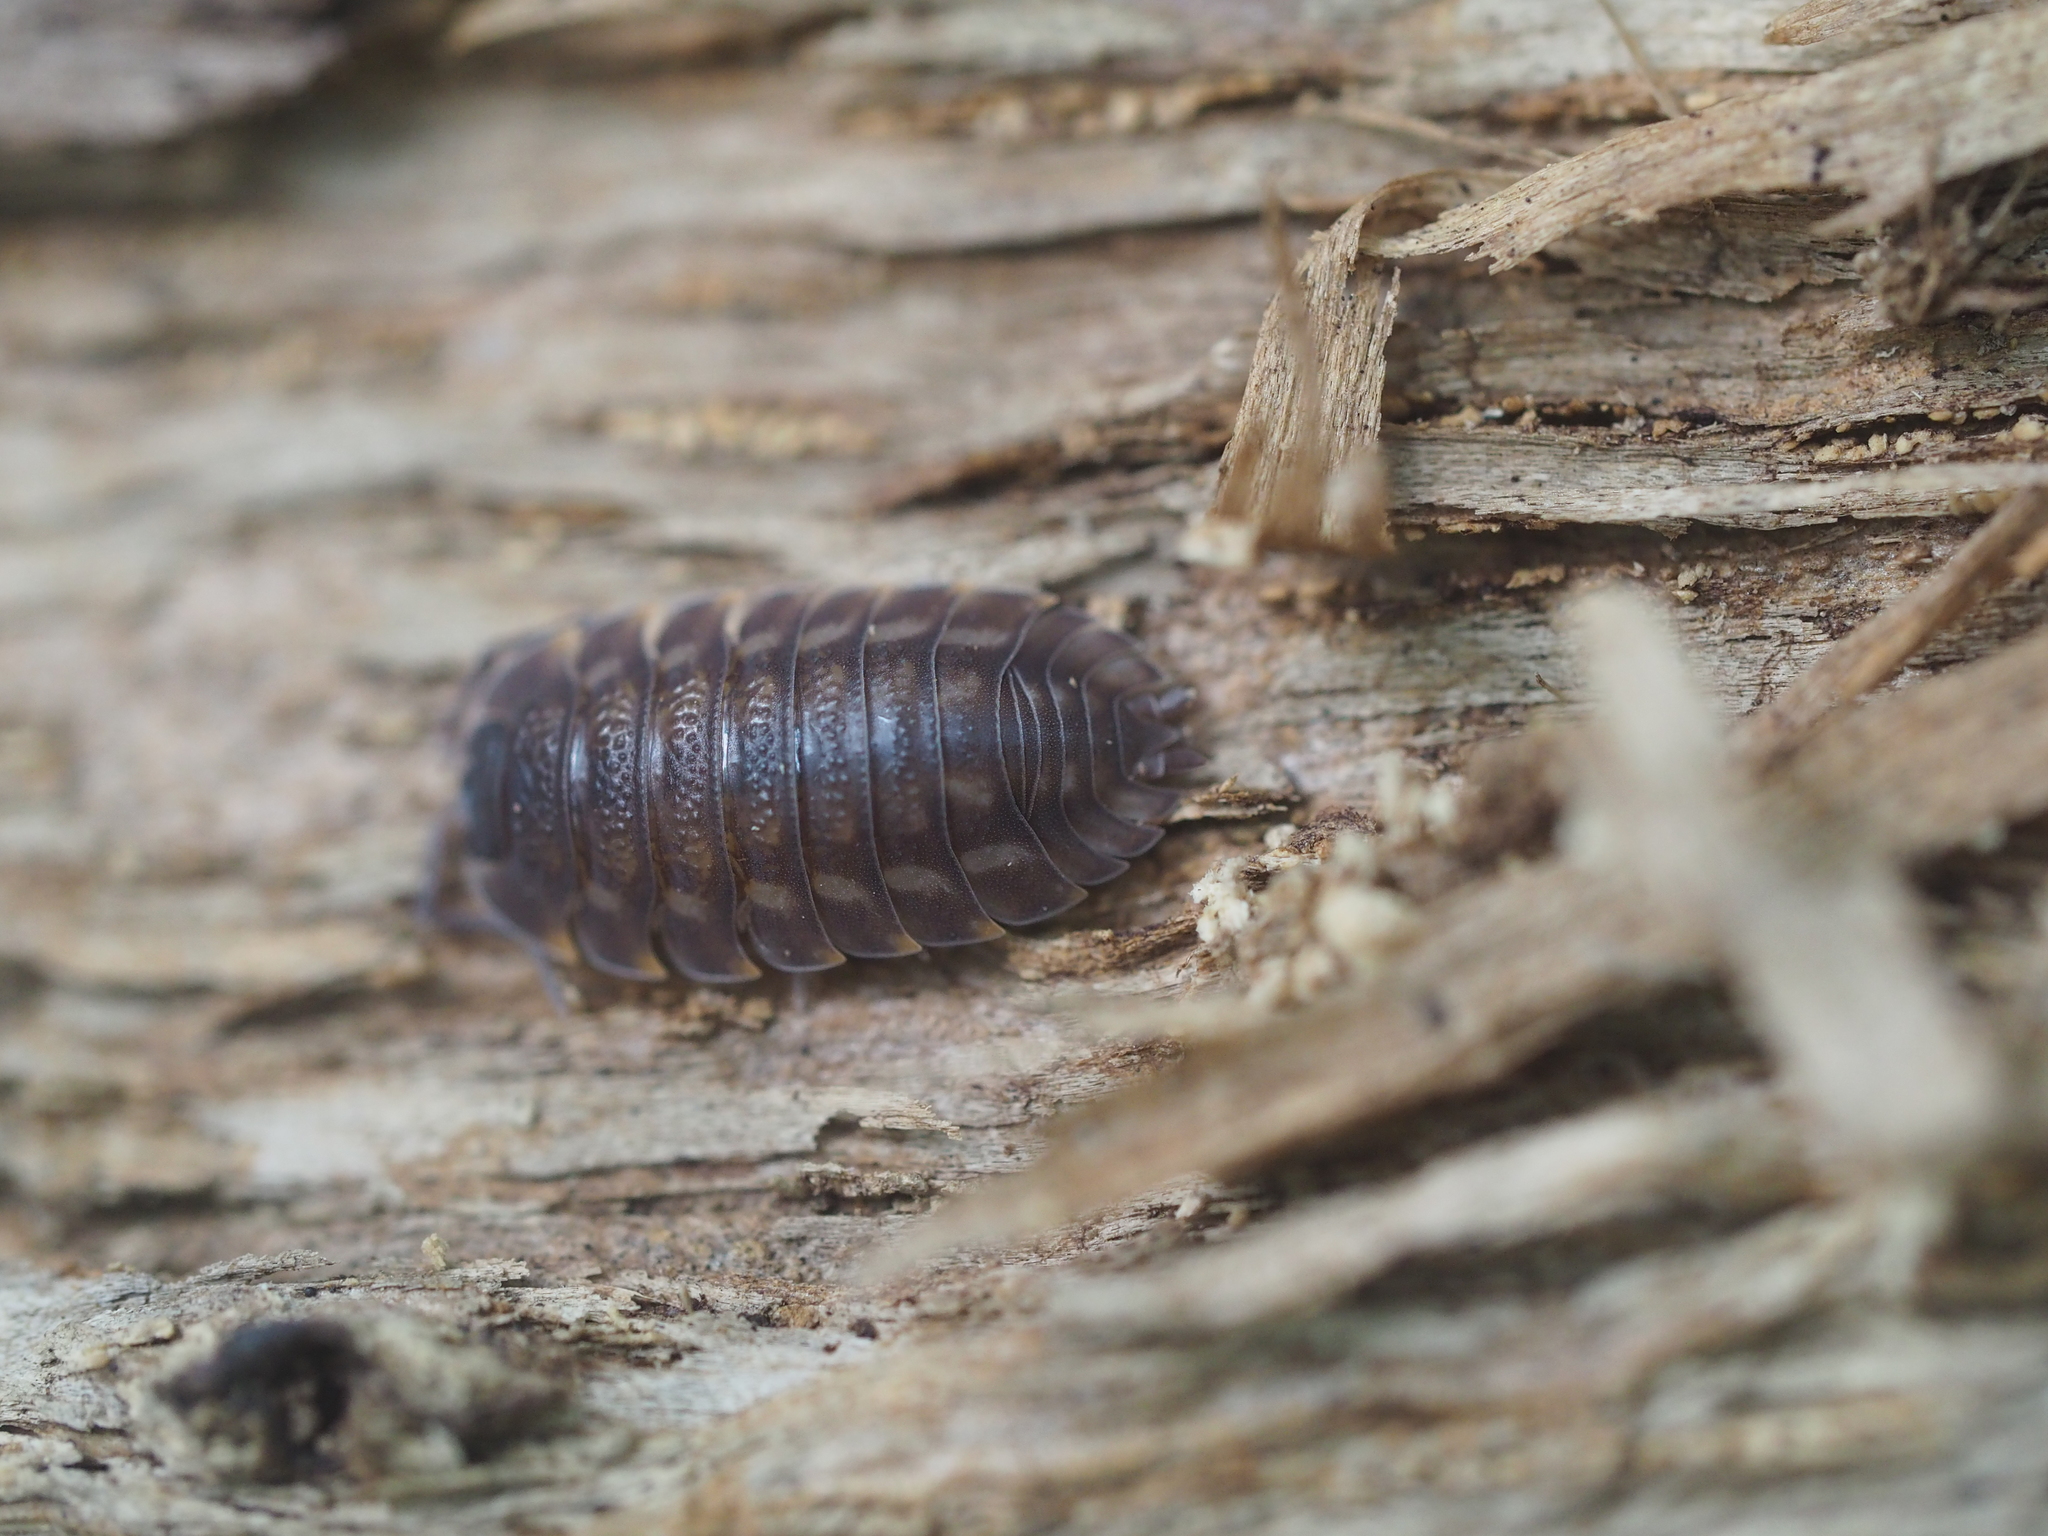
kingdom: Animalia
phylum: Arthropoda
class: Malacostraca
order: Isopoda
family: Trachelipodidae
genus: Trachelipus
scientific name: Trachelipus ratzeburgii
